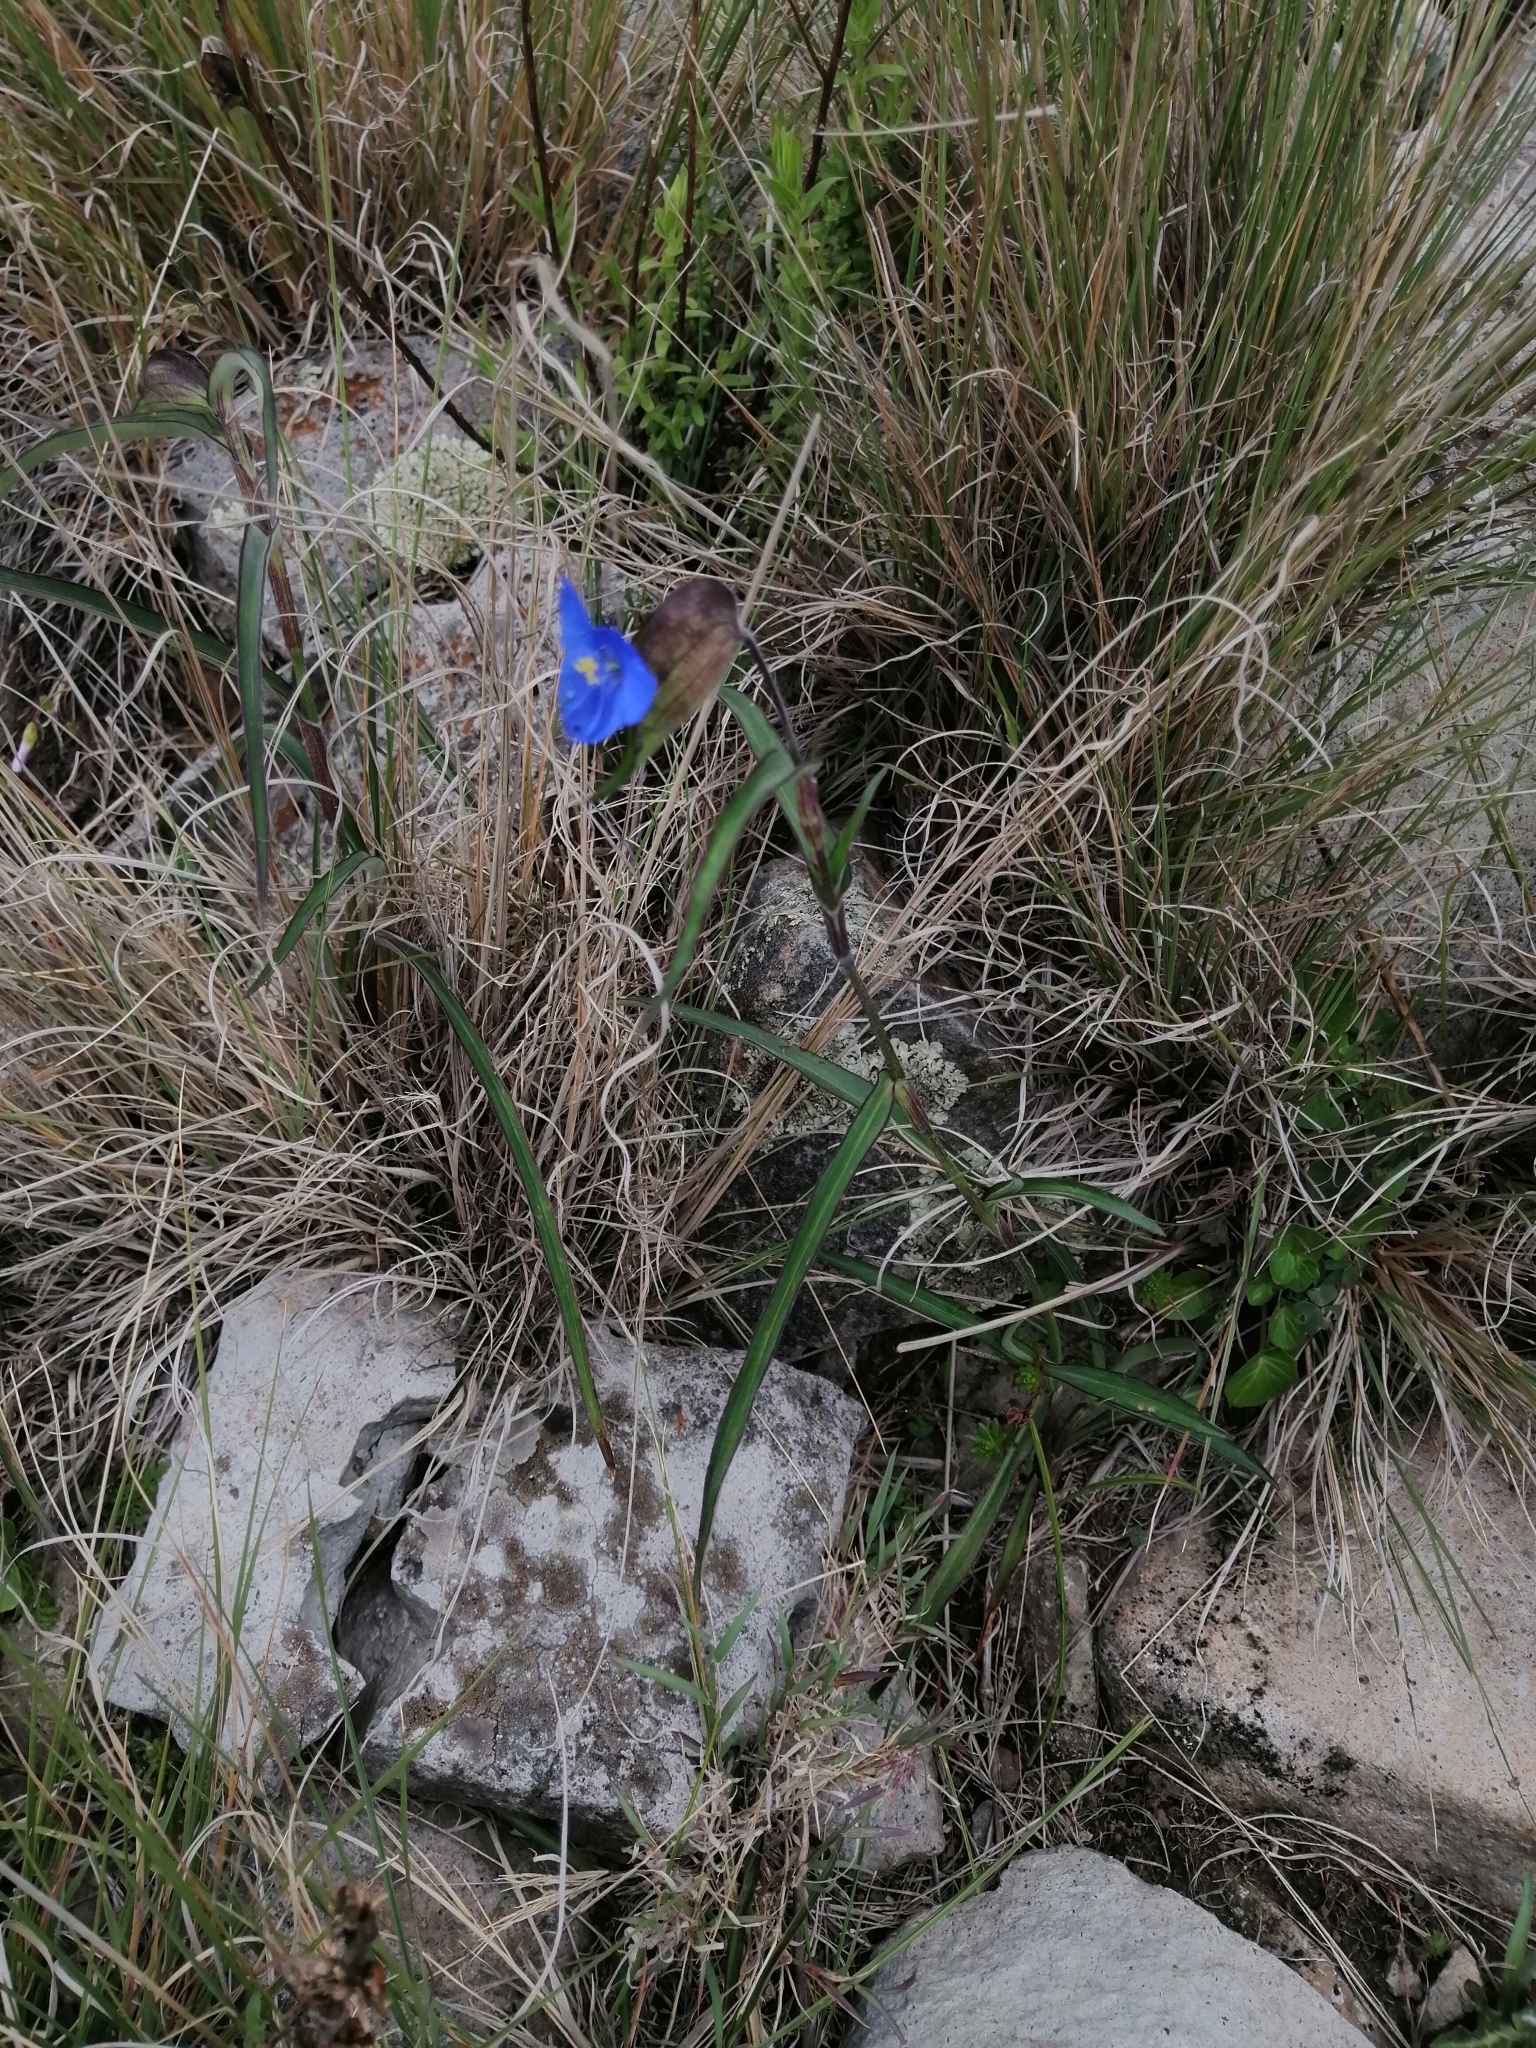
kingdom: Plantae
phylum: Tracheophyta
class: Liliopsida
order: Commelinales
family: Commelinaceae
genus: Commelina
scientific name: Commelina dianthifolia
